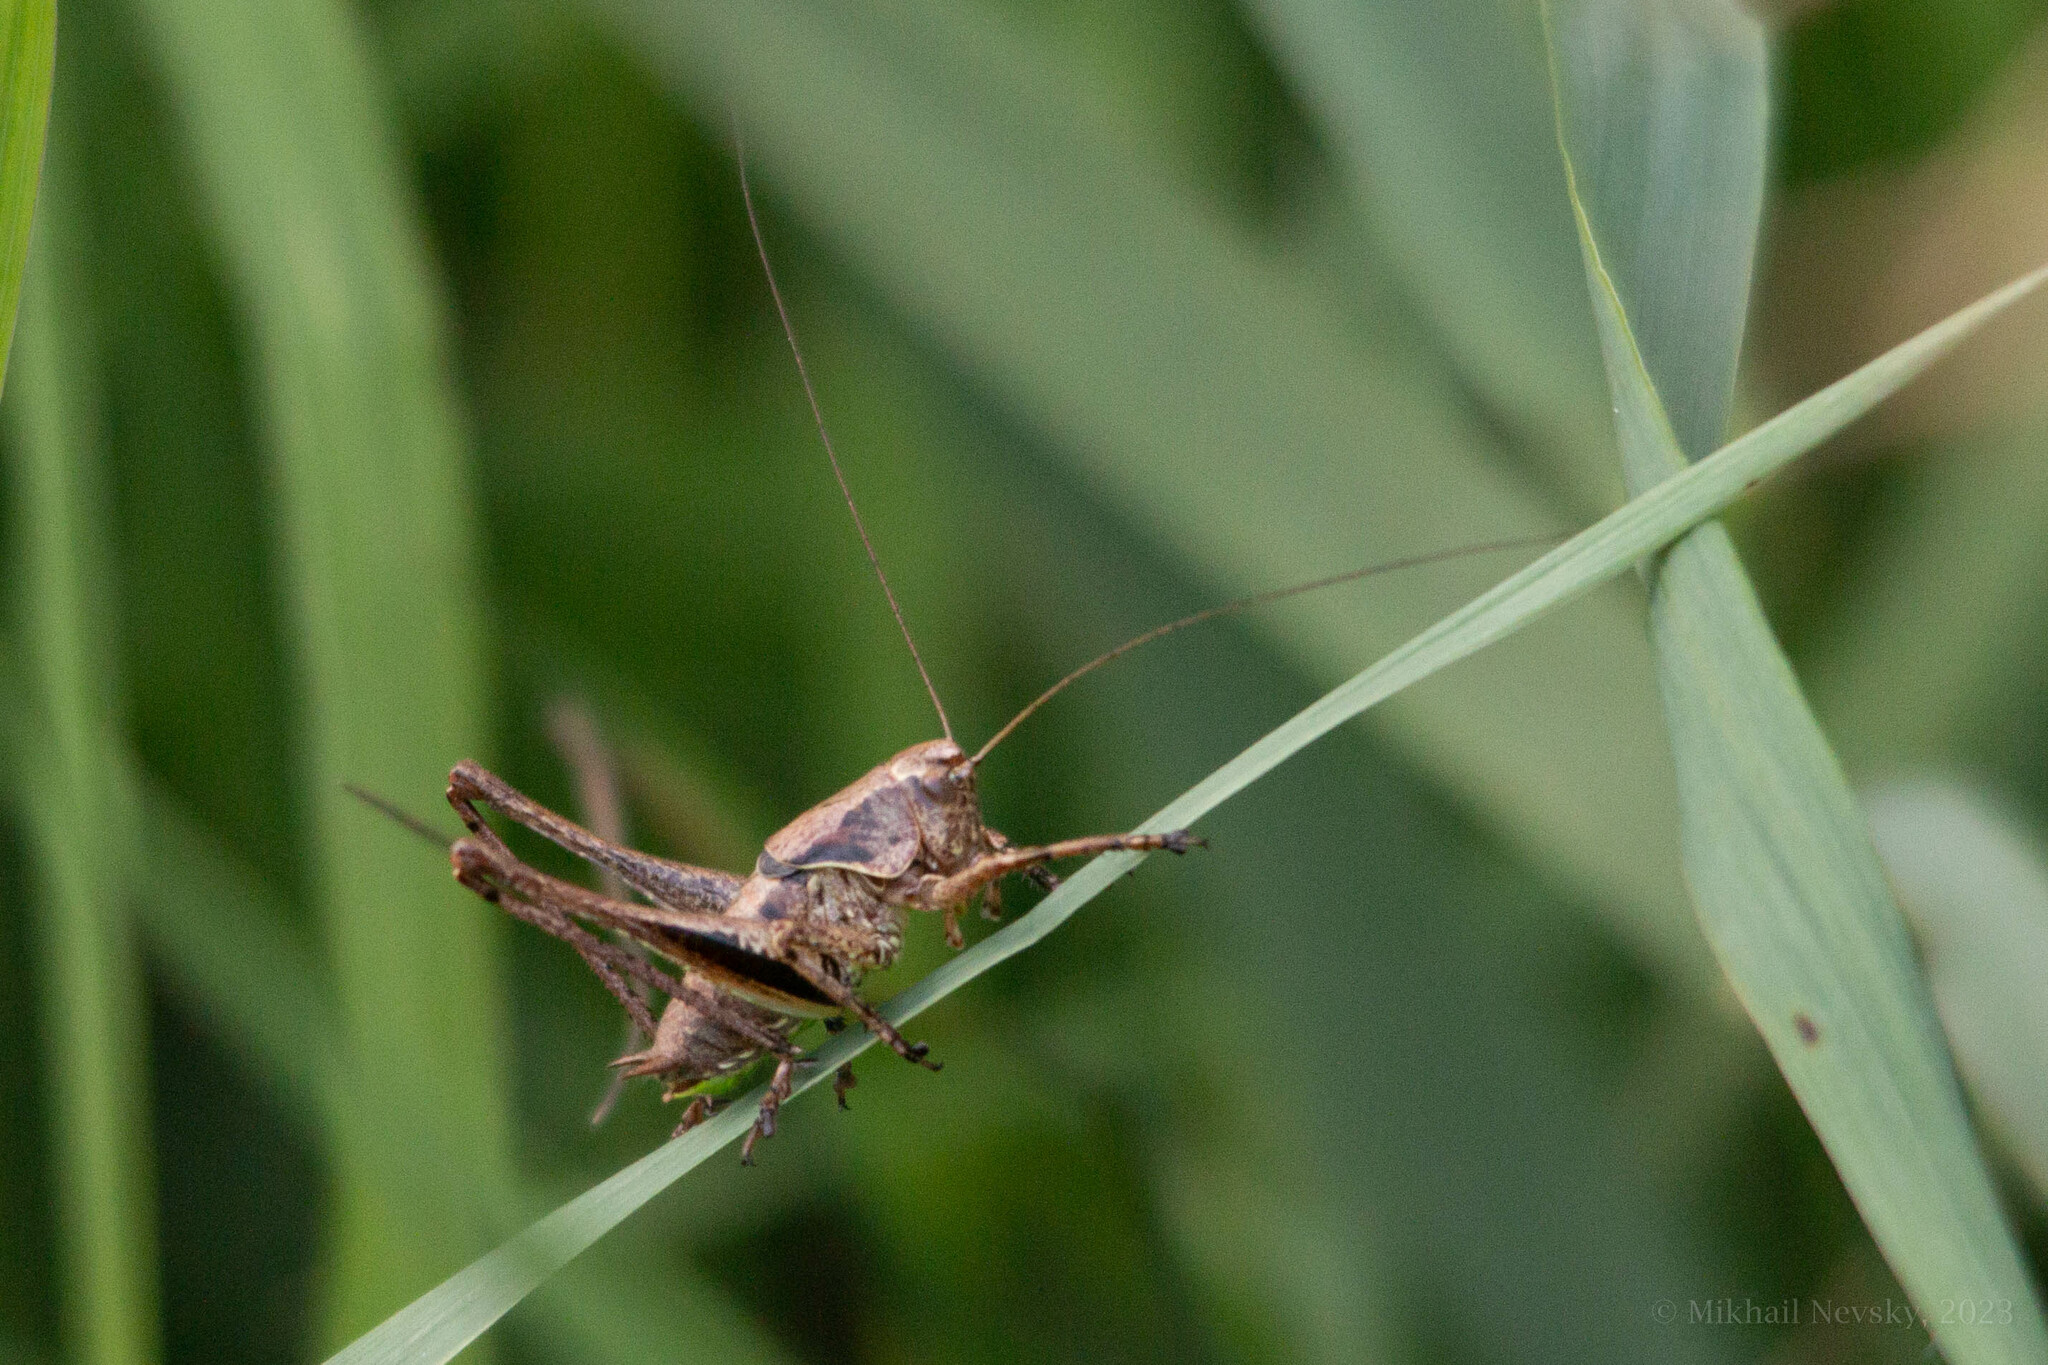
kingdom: Animalia
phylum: Arthropoda
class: Insecta
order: Orthoptera
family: Tettigoniidae
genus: Pholidoptera
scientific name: Pholidoptera griseoaptera
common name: Dark bush-cricket
